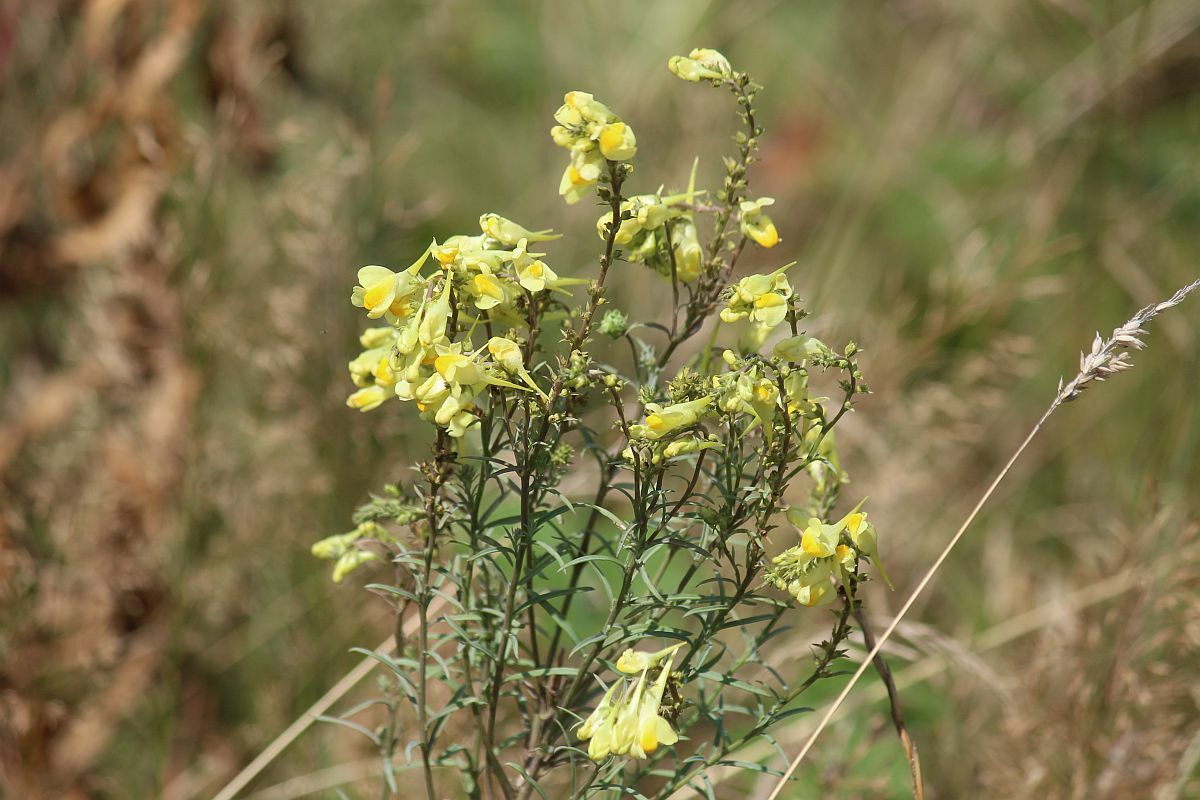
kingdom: Plantae
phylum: Tracheophyta
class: Magnoliopsida
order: Lamiales
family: Plantaginaceae
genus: Linaria
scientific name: Linaria vulgaris
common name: Butter and eggs
